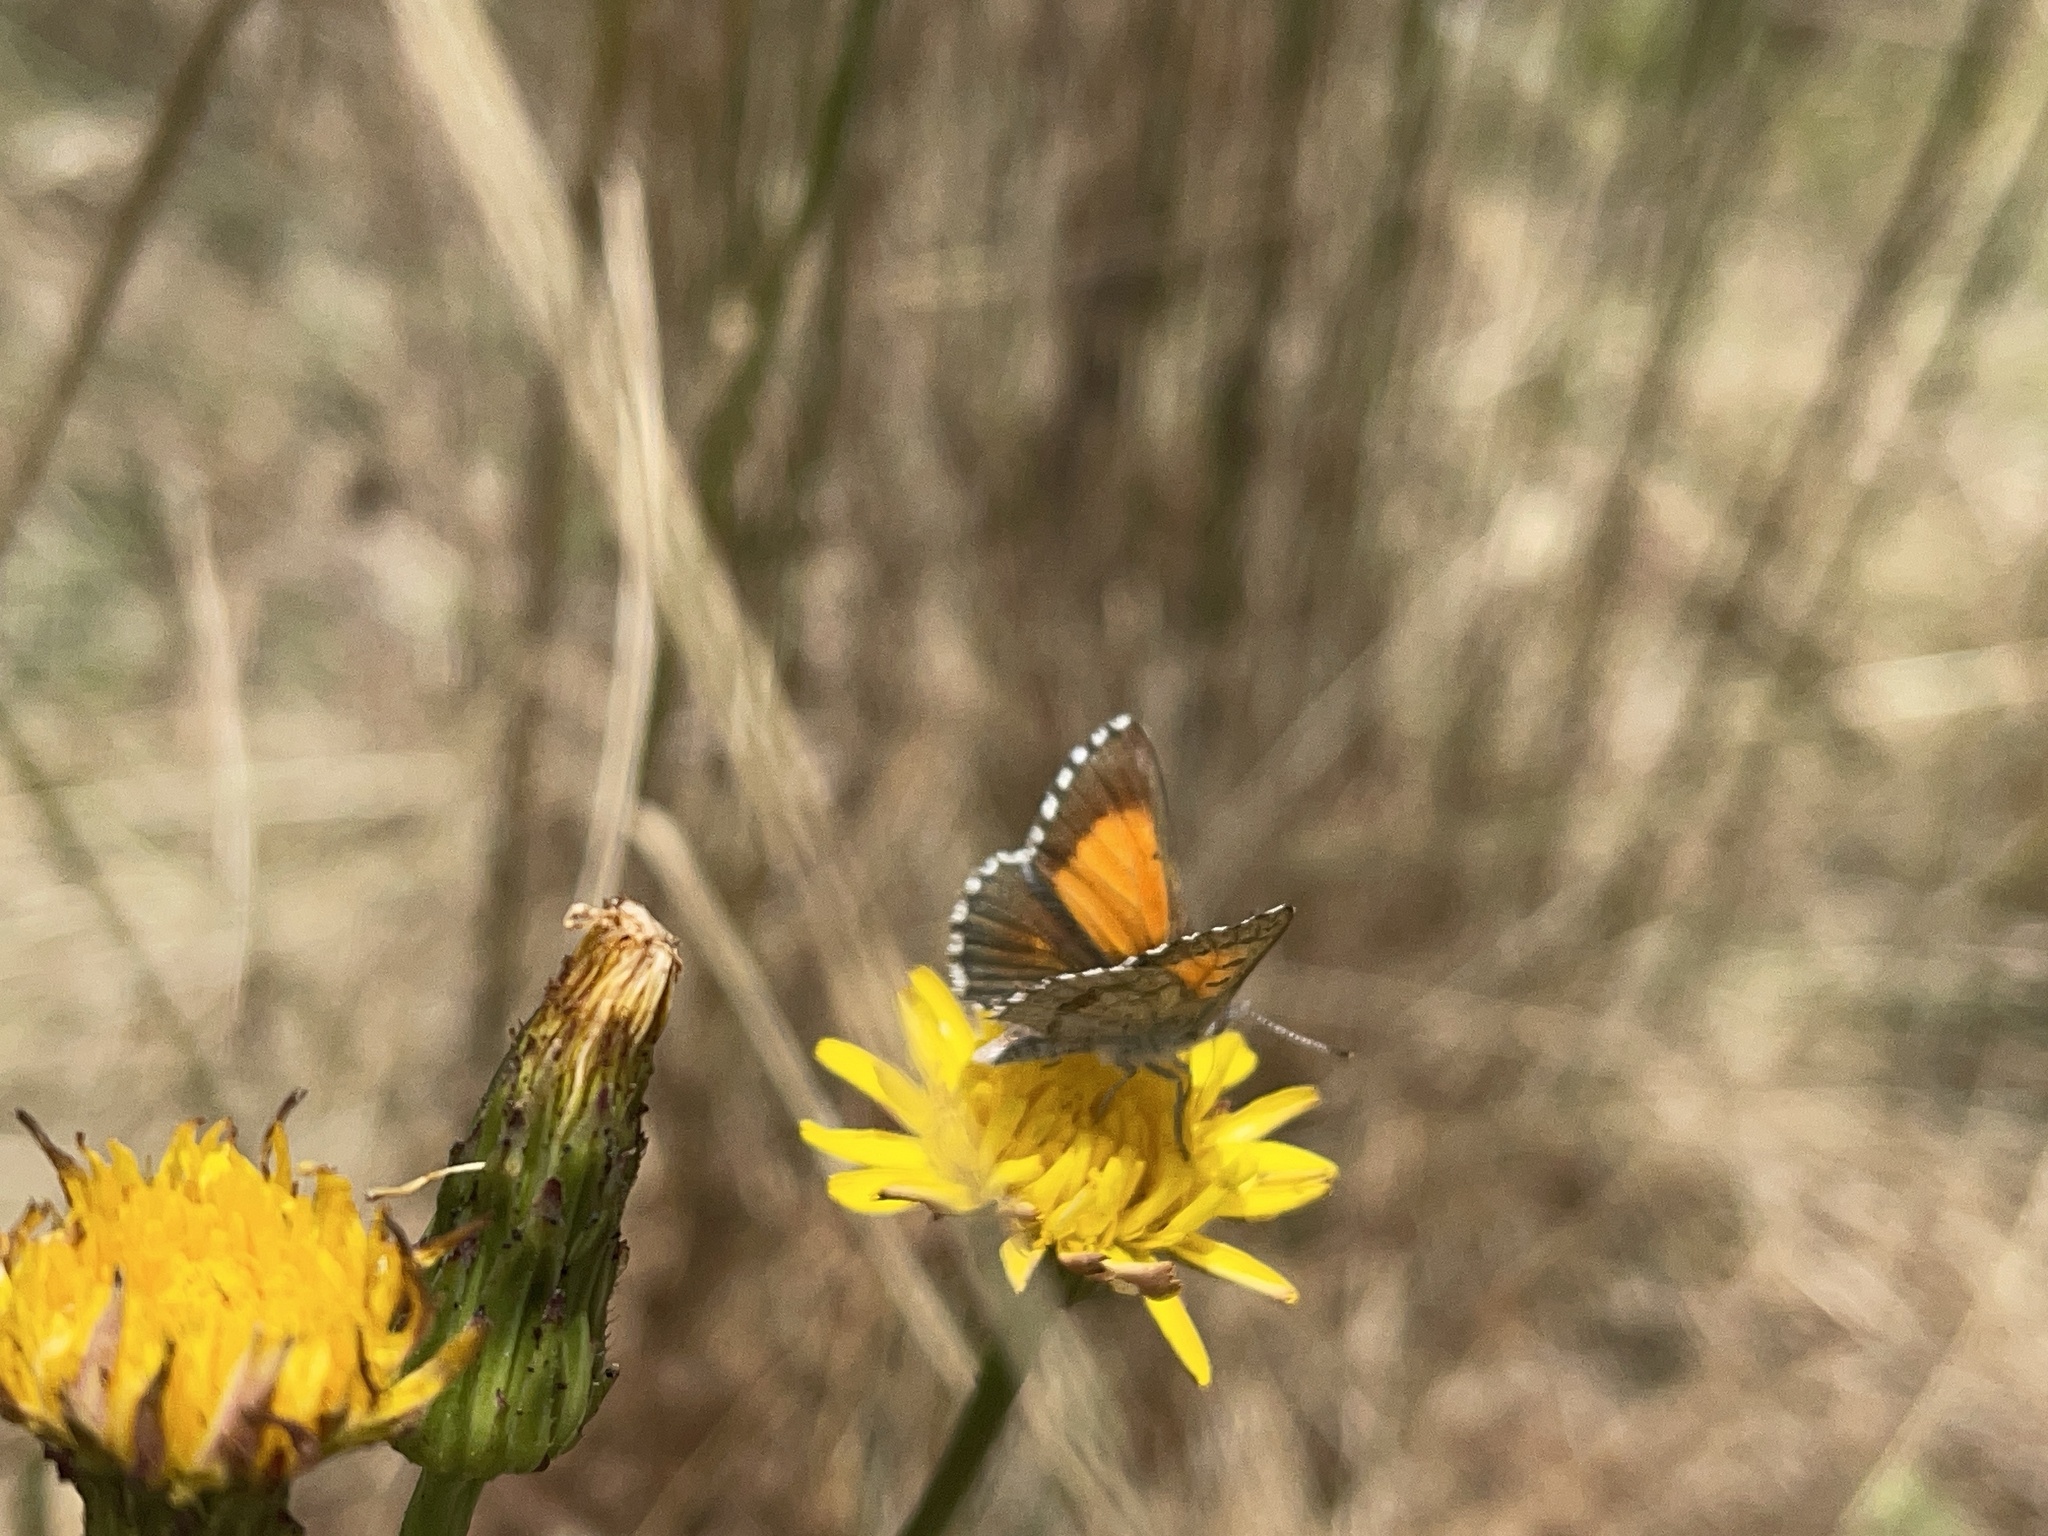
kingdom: Animalia
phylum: Arthropoda
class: Insecta
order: Lepidoptera
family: Lycaenidae
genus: Lucia
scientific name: Lucia limbaria
